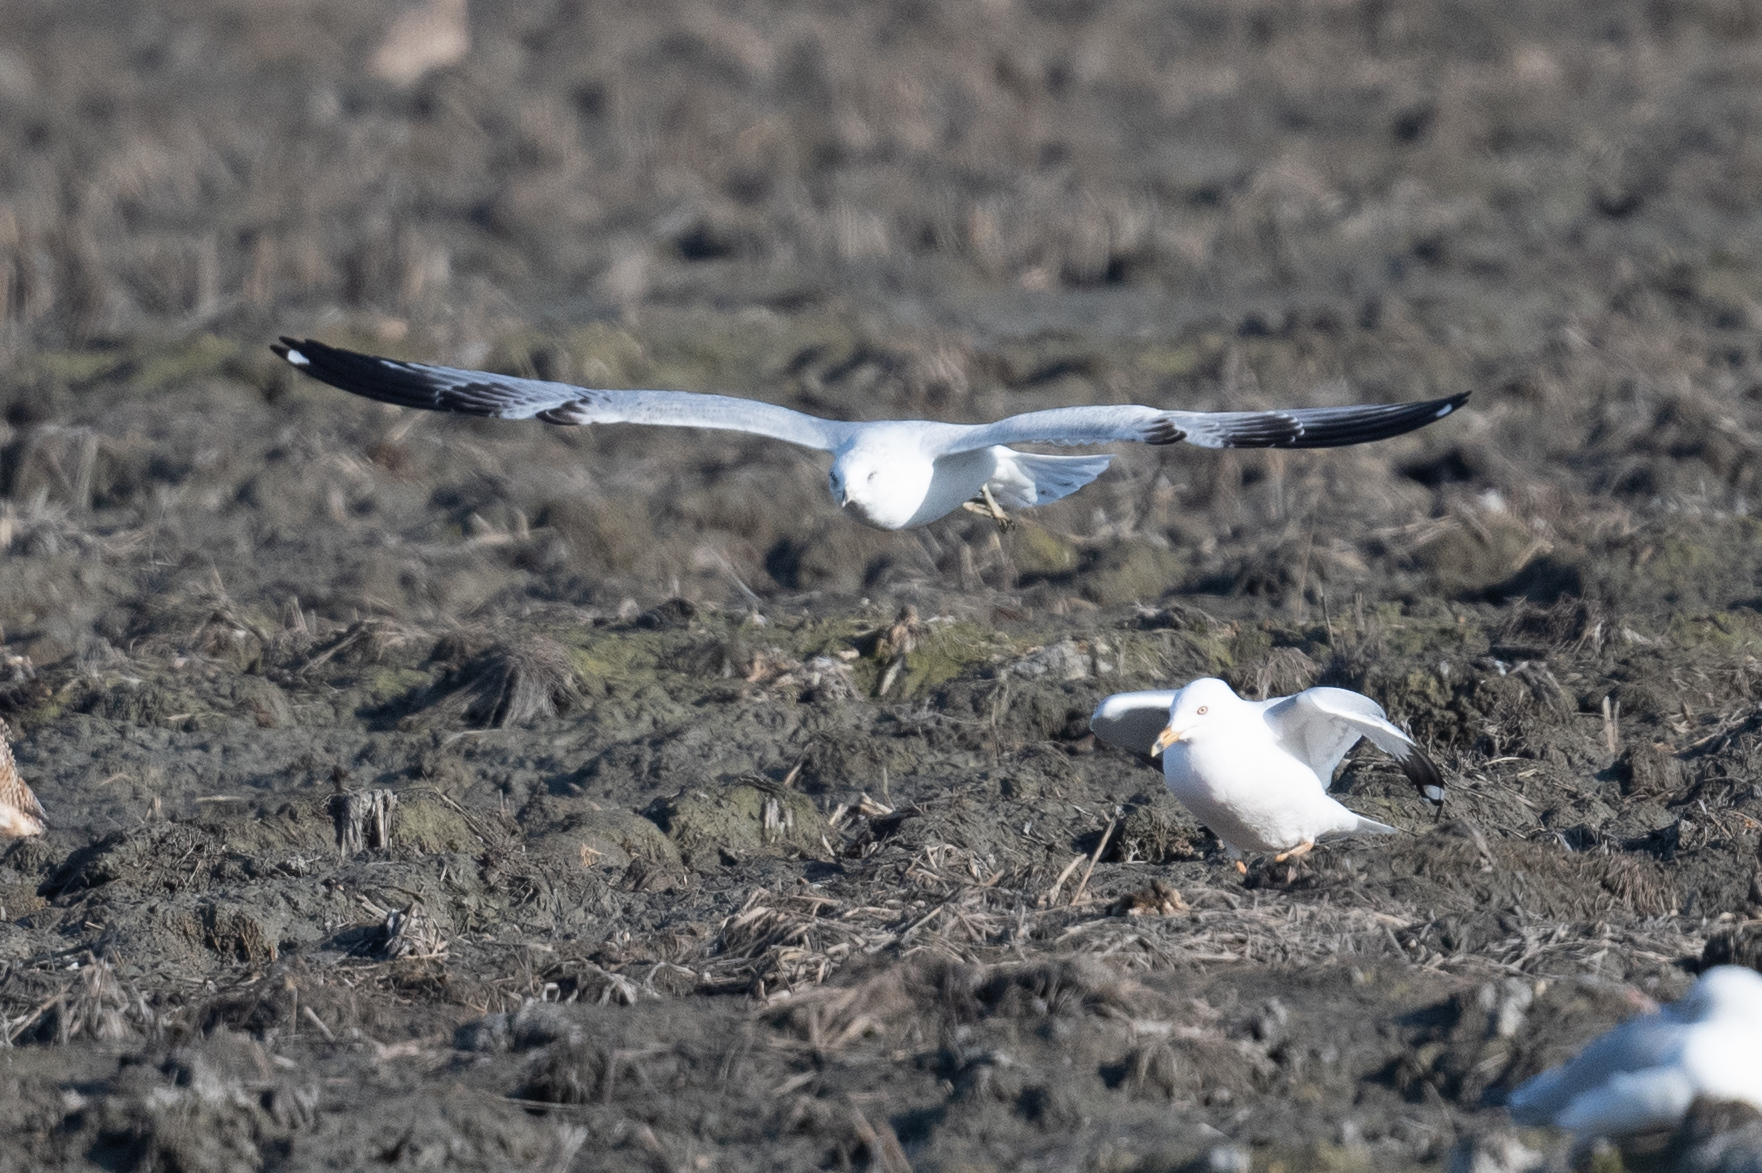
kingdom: Animalia
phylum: Chordata
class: Aves
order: Charadriiformes
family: Laridae
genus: Larus
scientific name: Larus delawarensis
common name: Ring-billed gull
